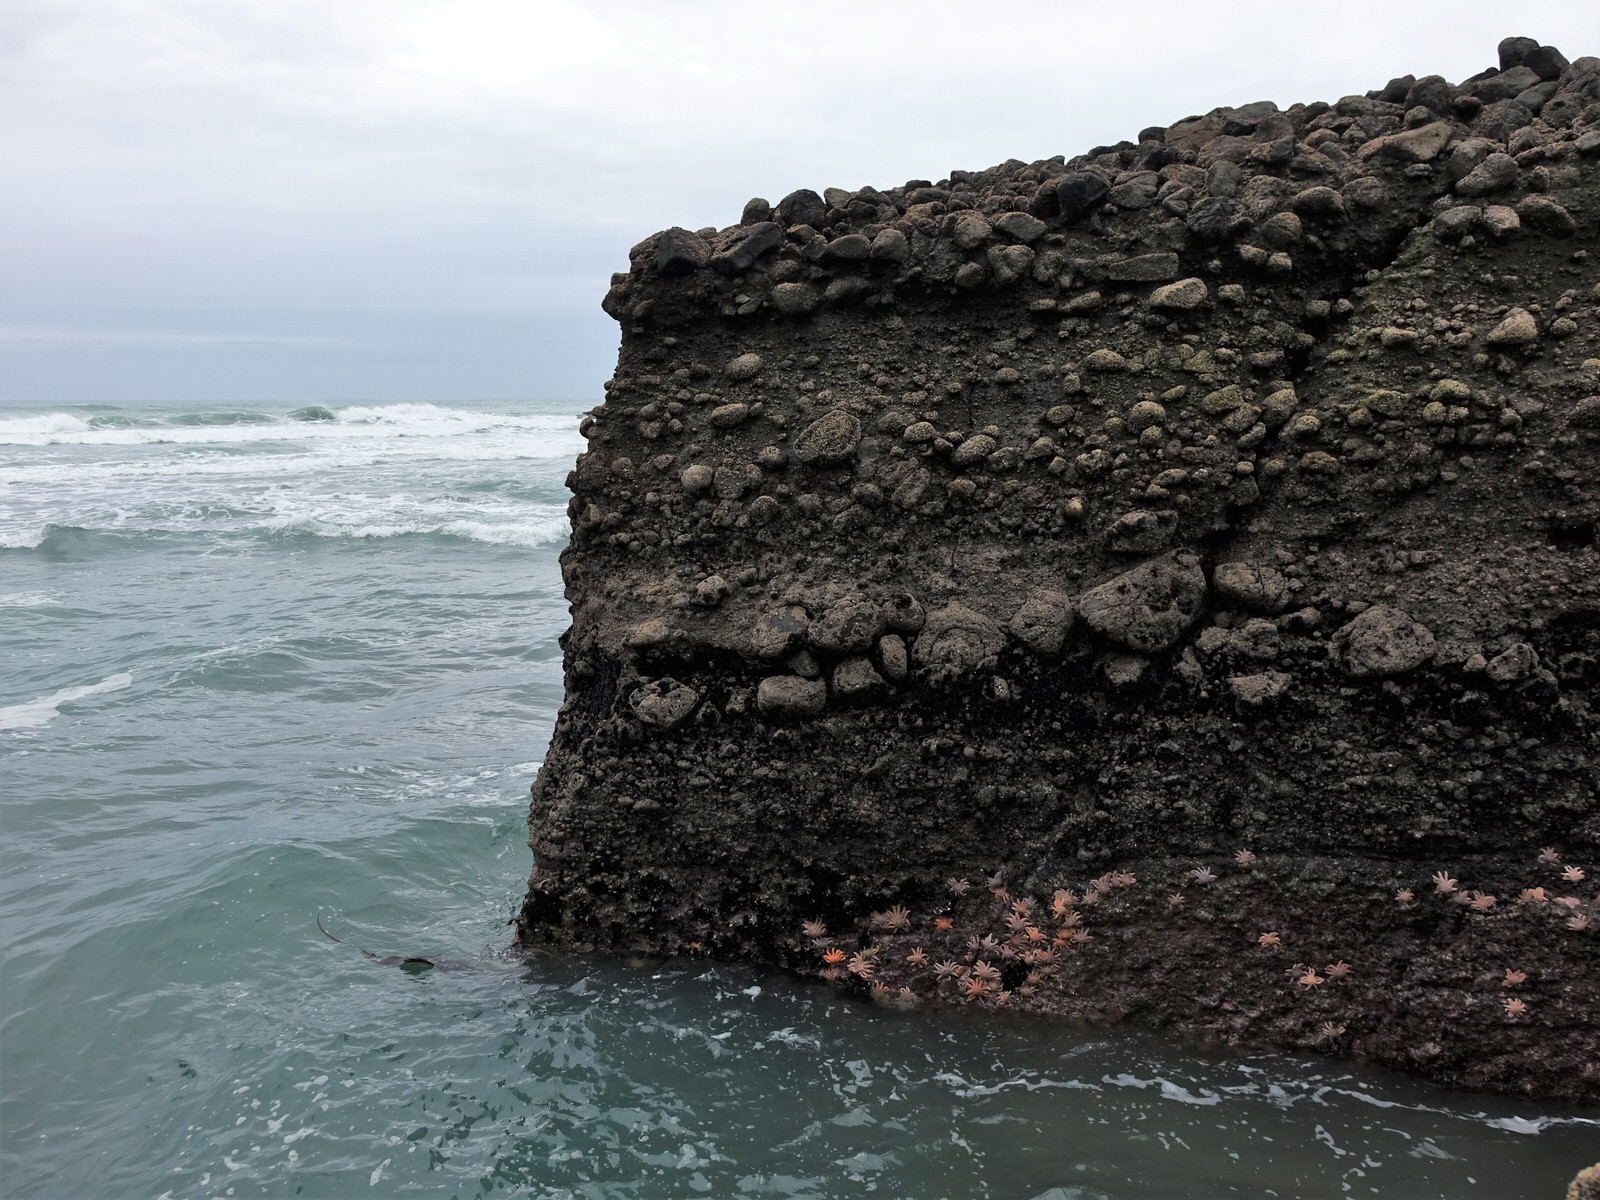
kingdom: Animalia
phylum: Echinodermata
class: Asteroidea
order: Forcipulatida
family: Stichasteridae
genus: Stichaster
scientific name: Stichaster australis
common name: Reef starfish
